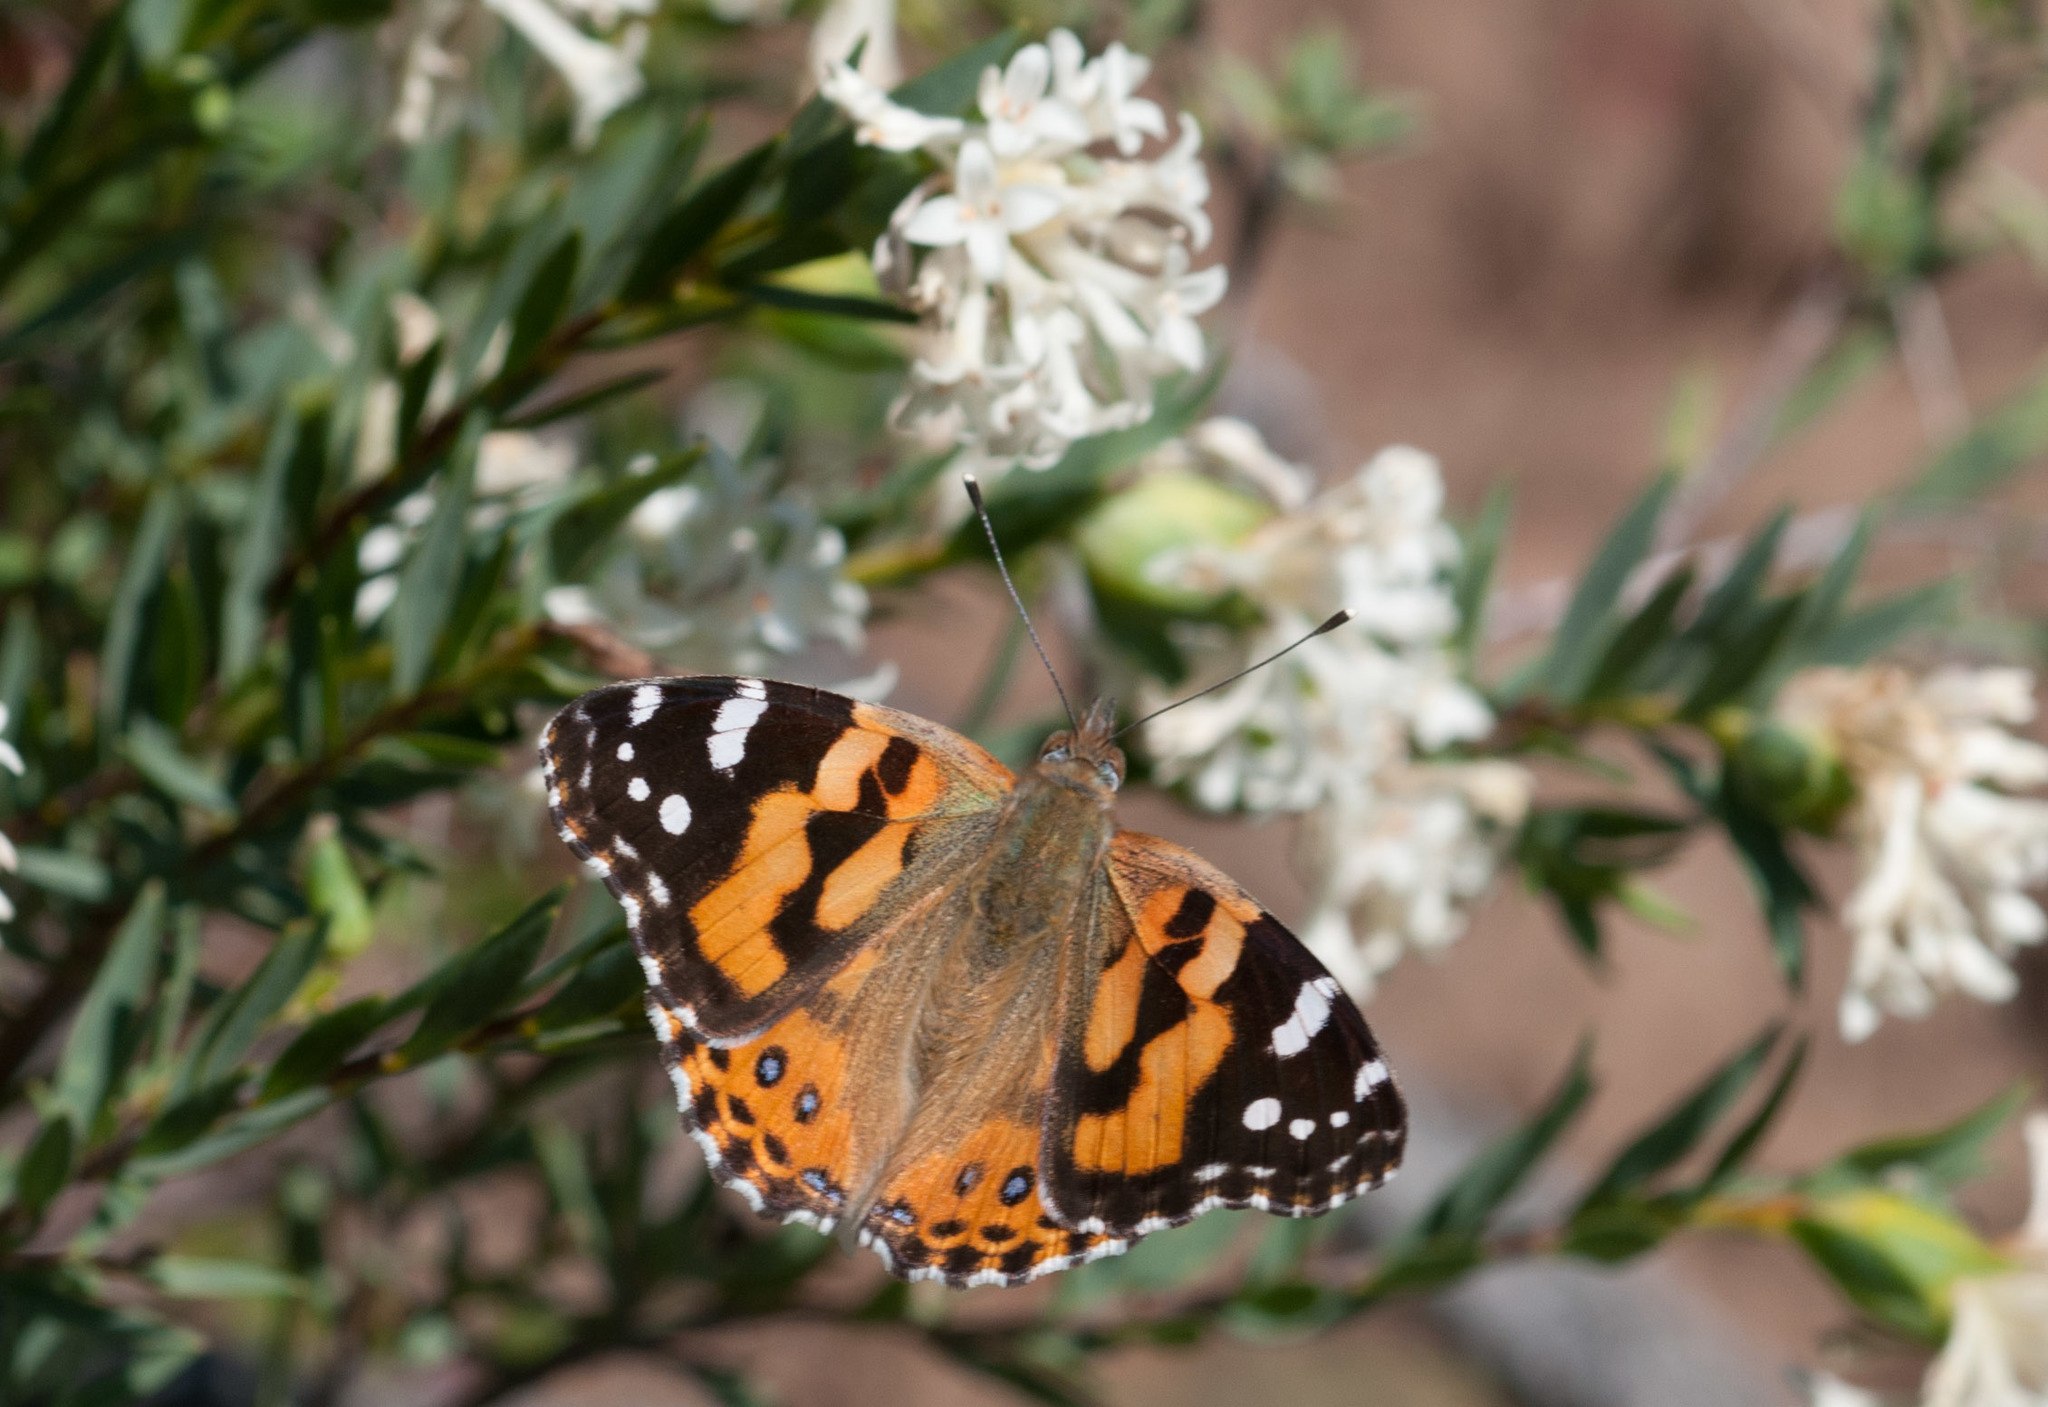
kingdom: Animalia
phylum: Arthropoda
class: Insecta
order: Lepidoptera
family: Nymphalidae
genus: Vanessa
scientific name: Vanessa kershawi
